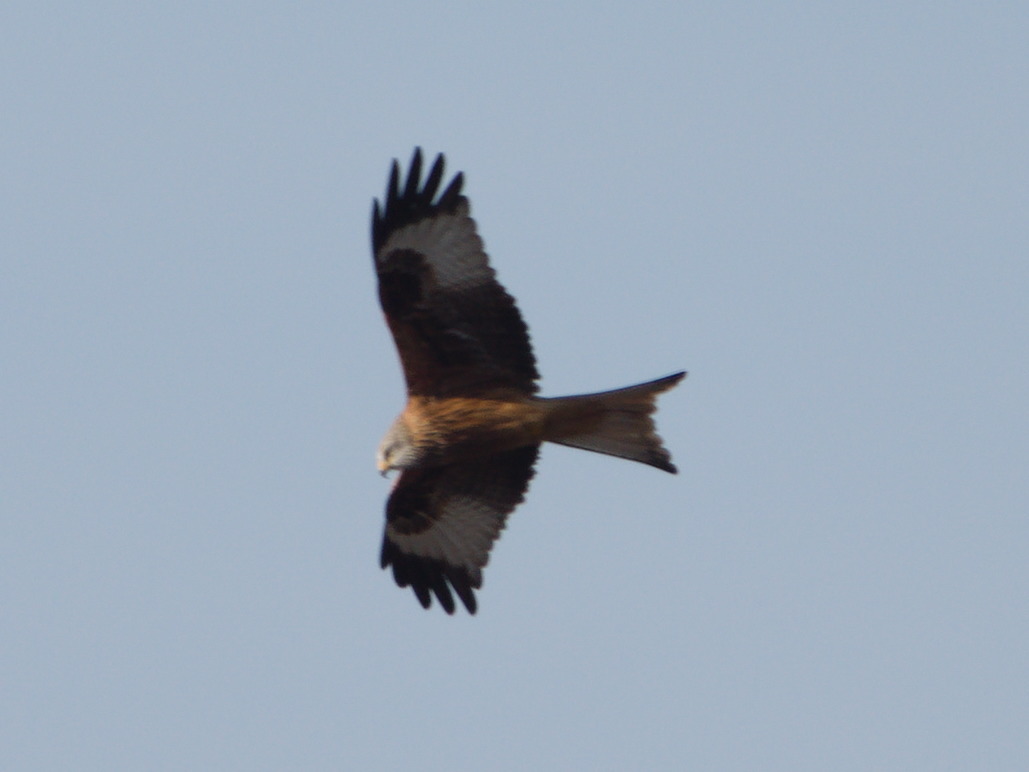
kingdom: Animalia
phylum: Chordata
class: Aves
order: Accipitriformes
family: Accipitridae
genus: Milvus
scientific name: Milvus milvus
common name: Red kite
